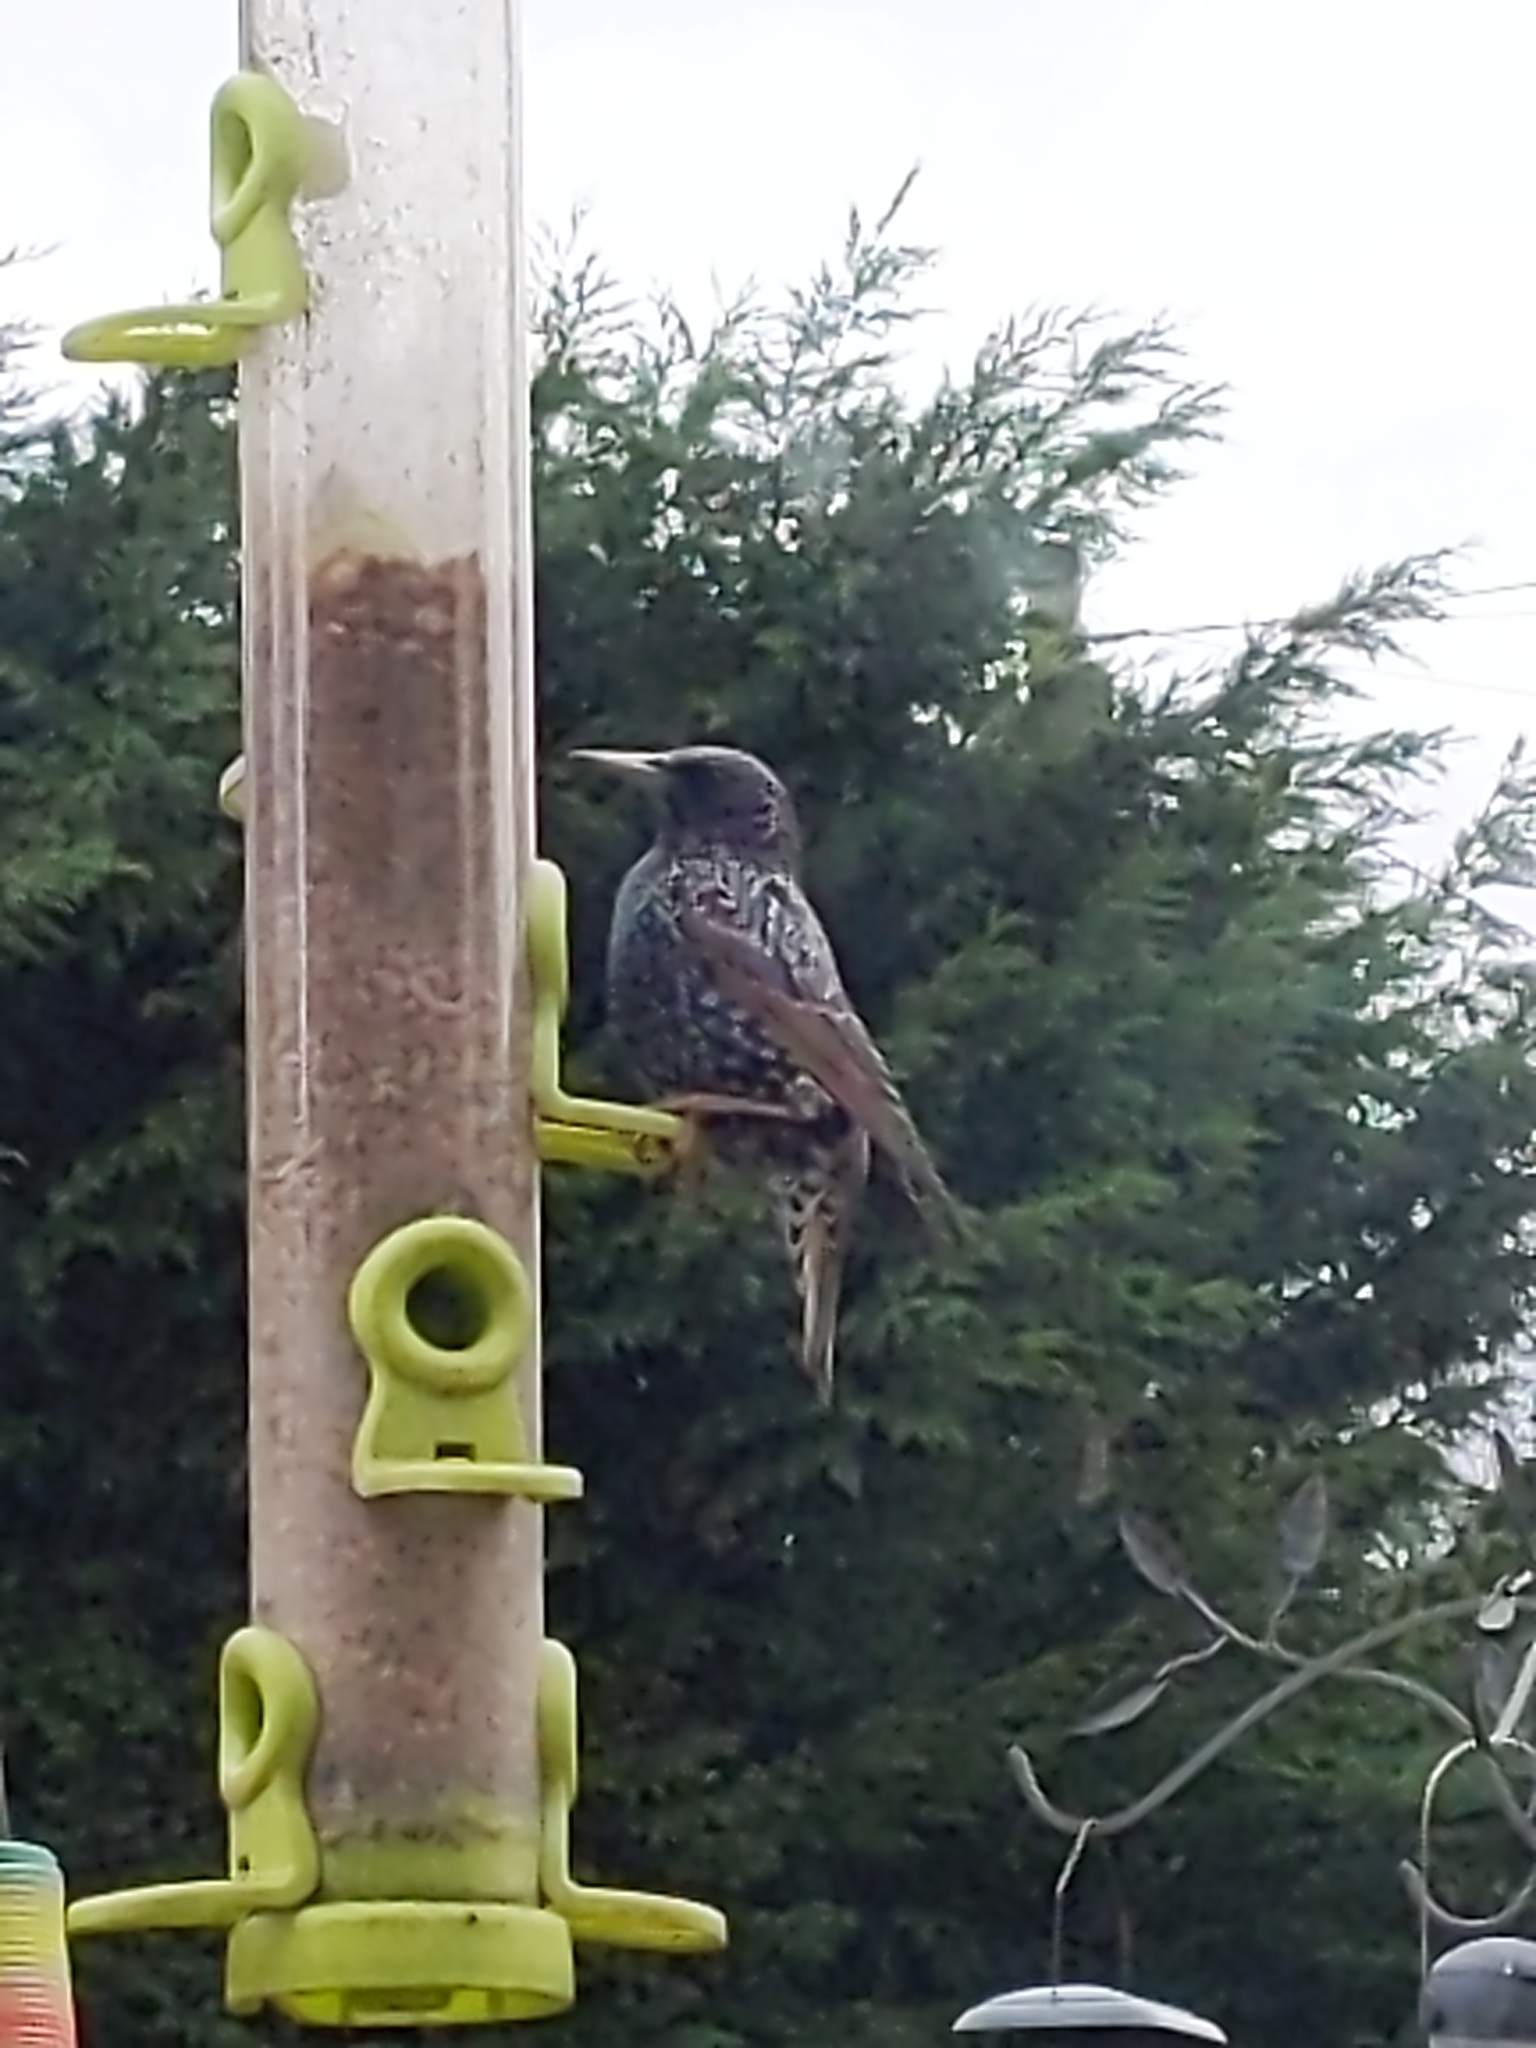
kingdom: Animalia
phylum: Chordata
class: Aves
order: Passeriformes
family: Sturnidae
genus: Sturnus
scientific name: Sturnus vulgaris
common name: Common starling
